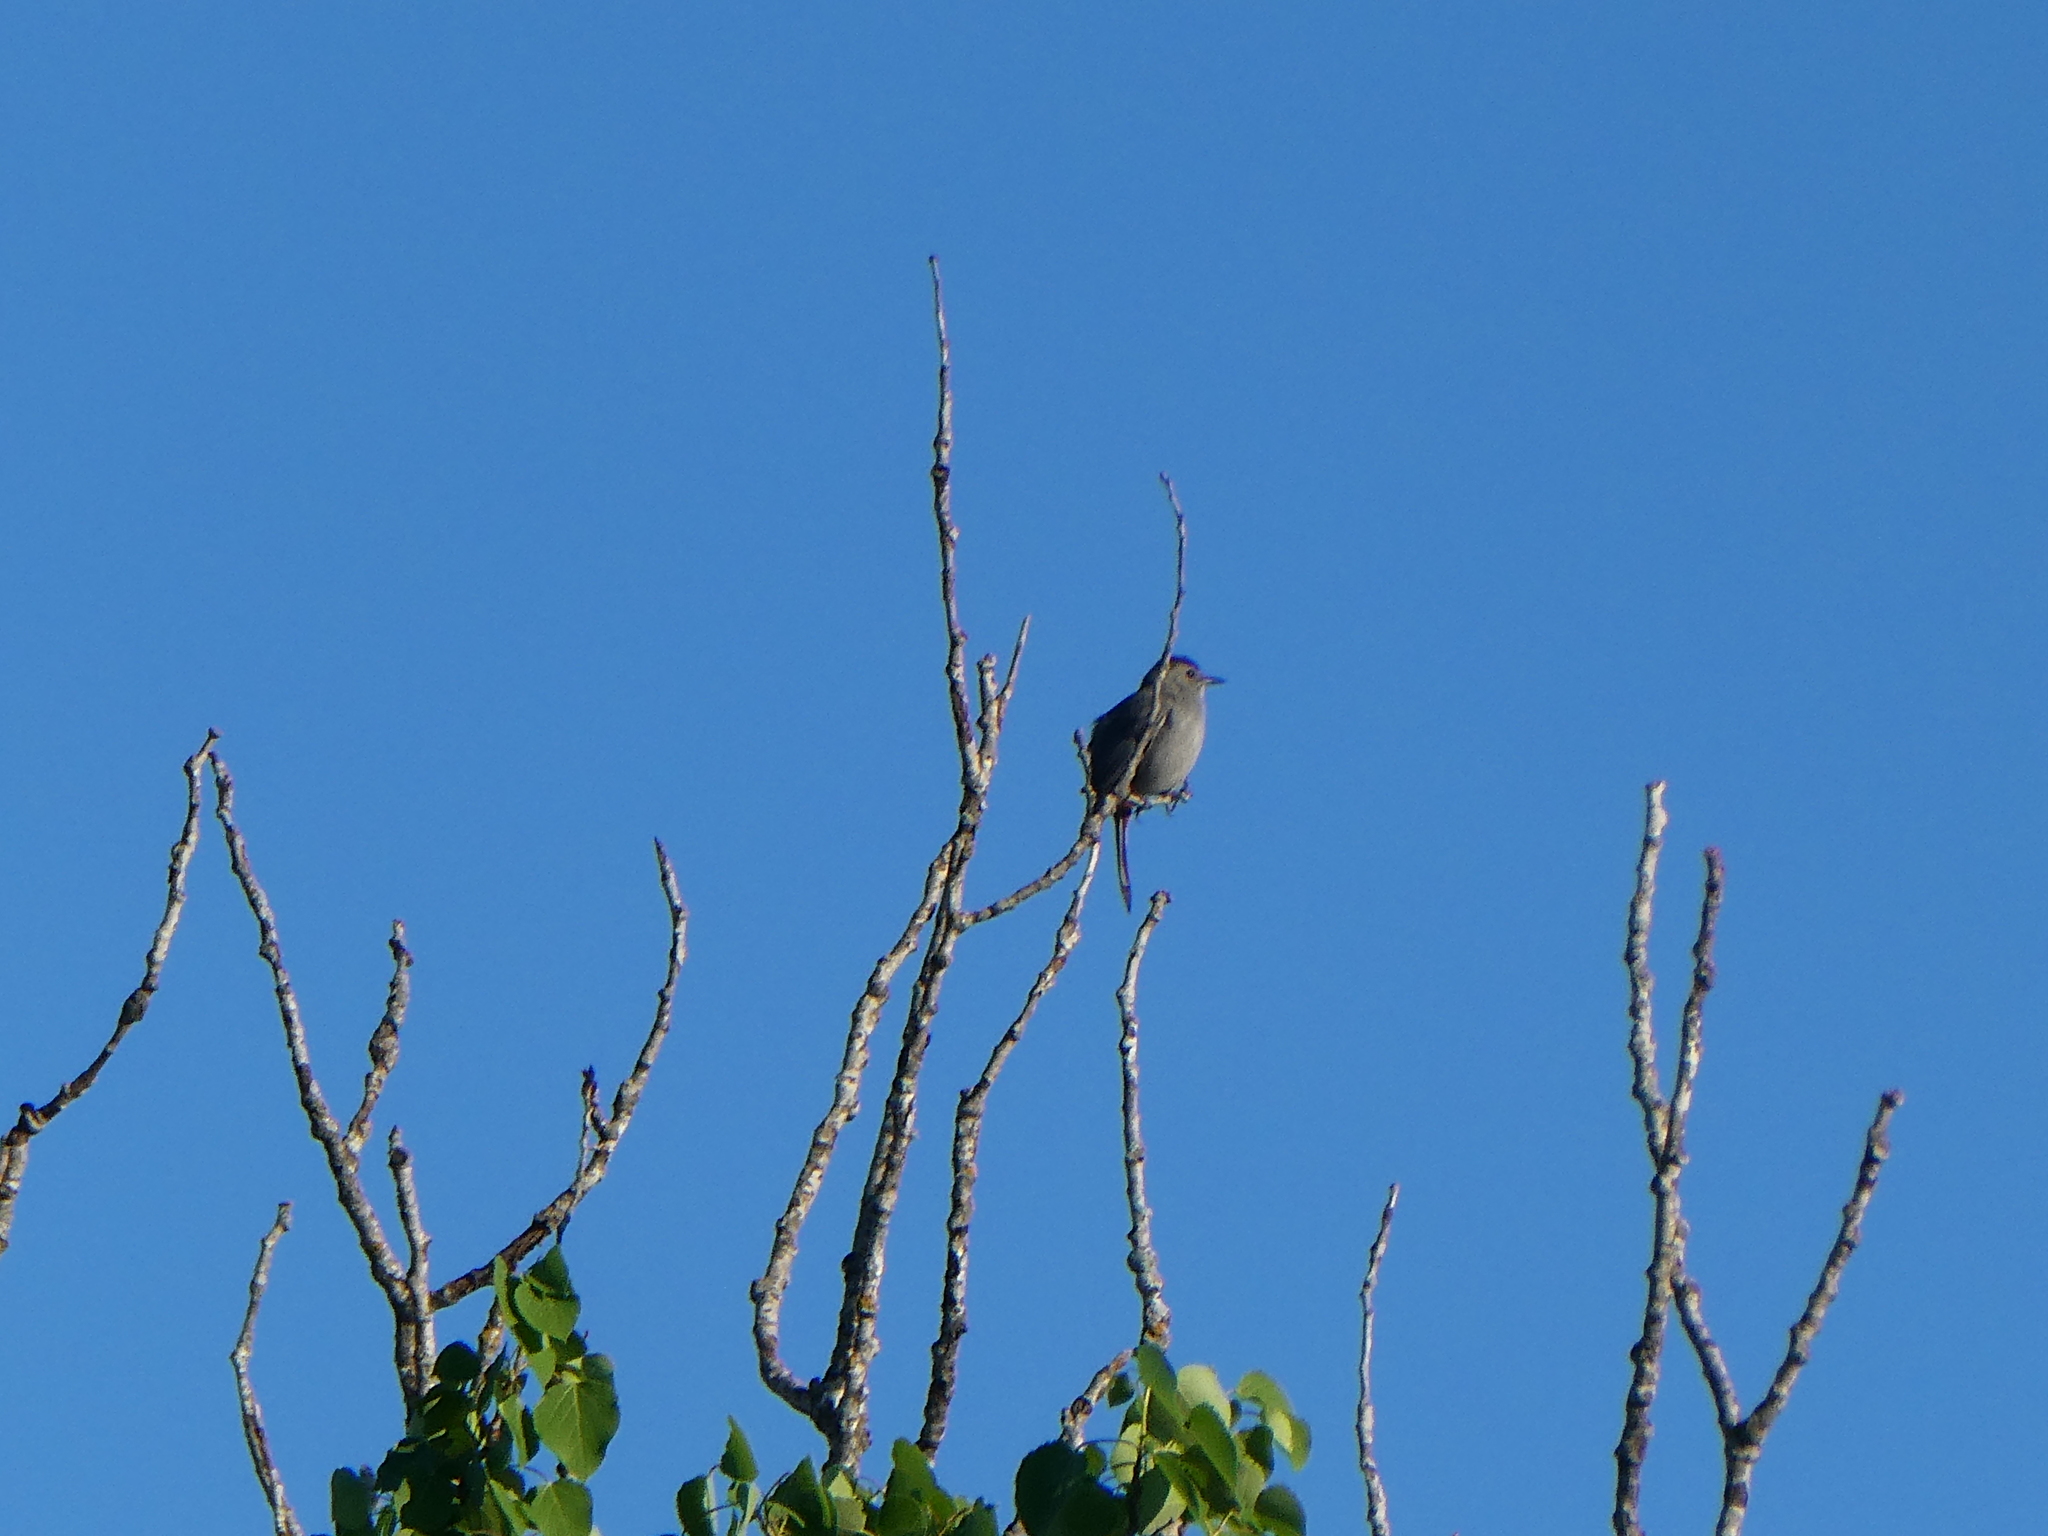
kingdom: Animalia
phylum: Chordata
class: Aves
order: Passeriformes
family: Mimidae
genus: Dumetella
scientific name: Dumetella carolinensis
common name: Gray catbird
